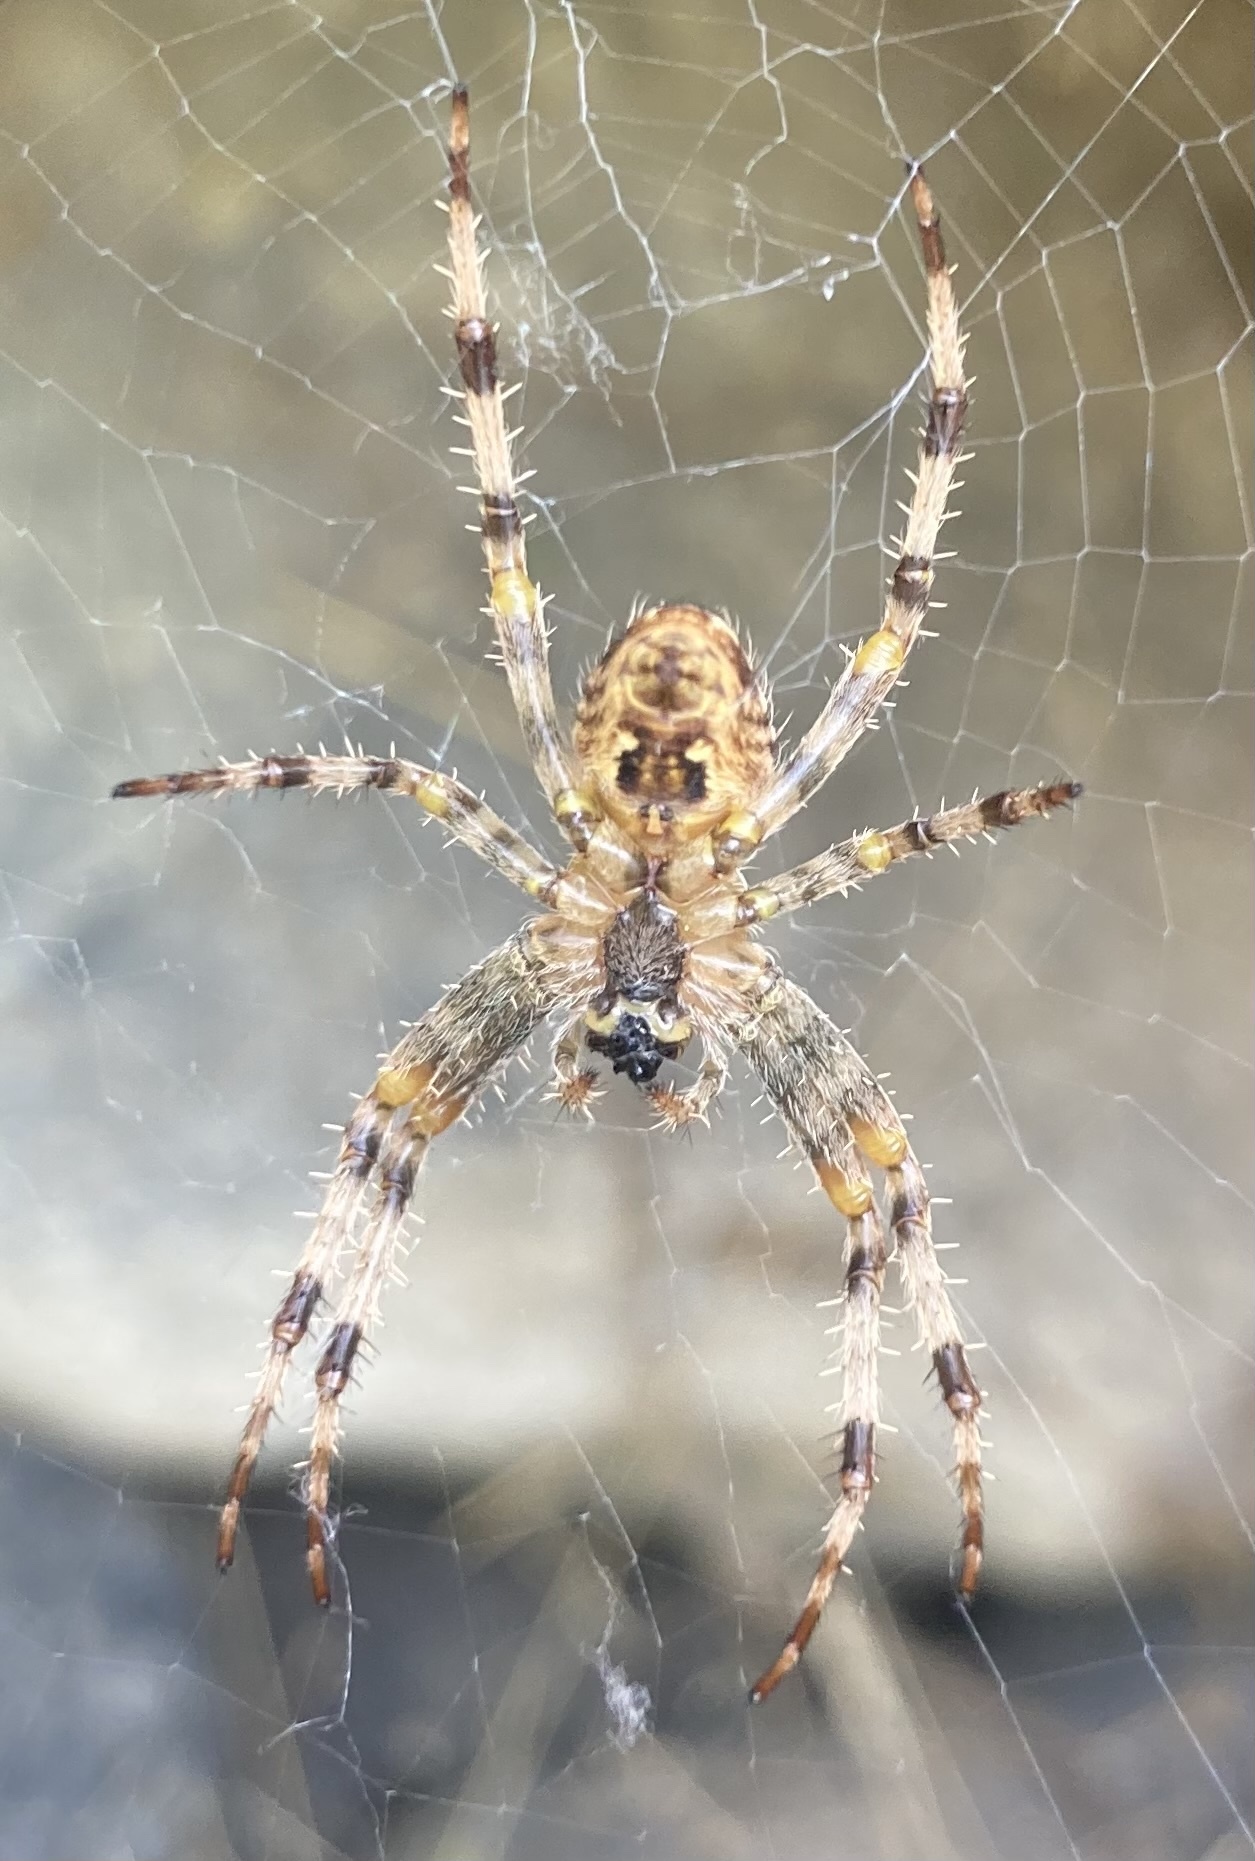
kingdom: Animalia
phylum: Arthropoda
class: Arachnida
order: Araneae
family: Araneidae
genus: Araneus
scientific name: Araneus diadematus
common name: Cross orbweaver
